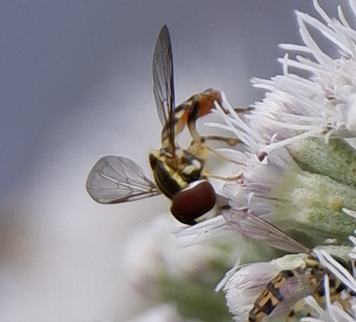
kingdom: Animalia
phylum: Arthropoda
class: Insecta
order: Diptera
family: Syrphidae
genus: Toxomerus
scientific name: Toxomerus geminatus
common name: Eastern calligrapher
